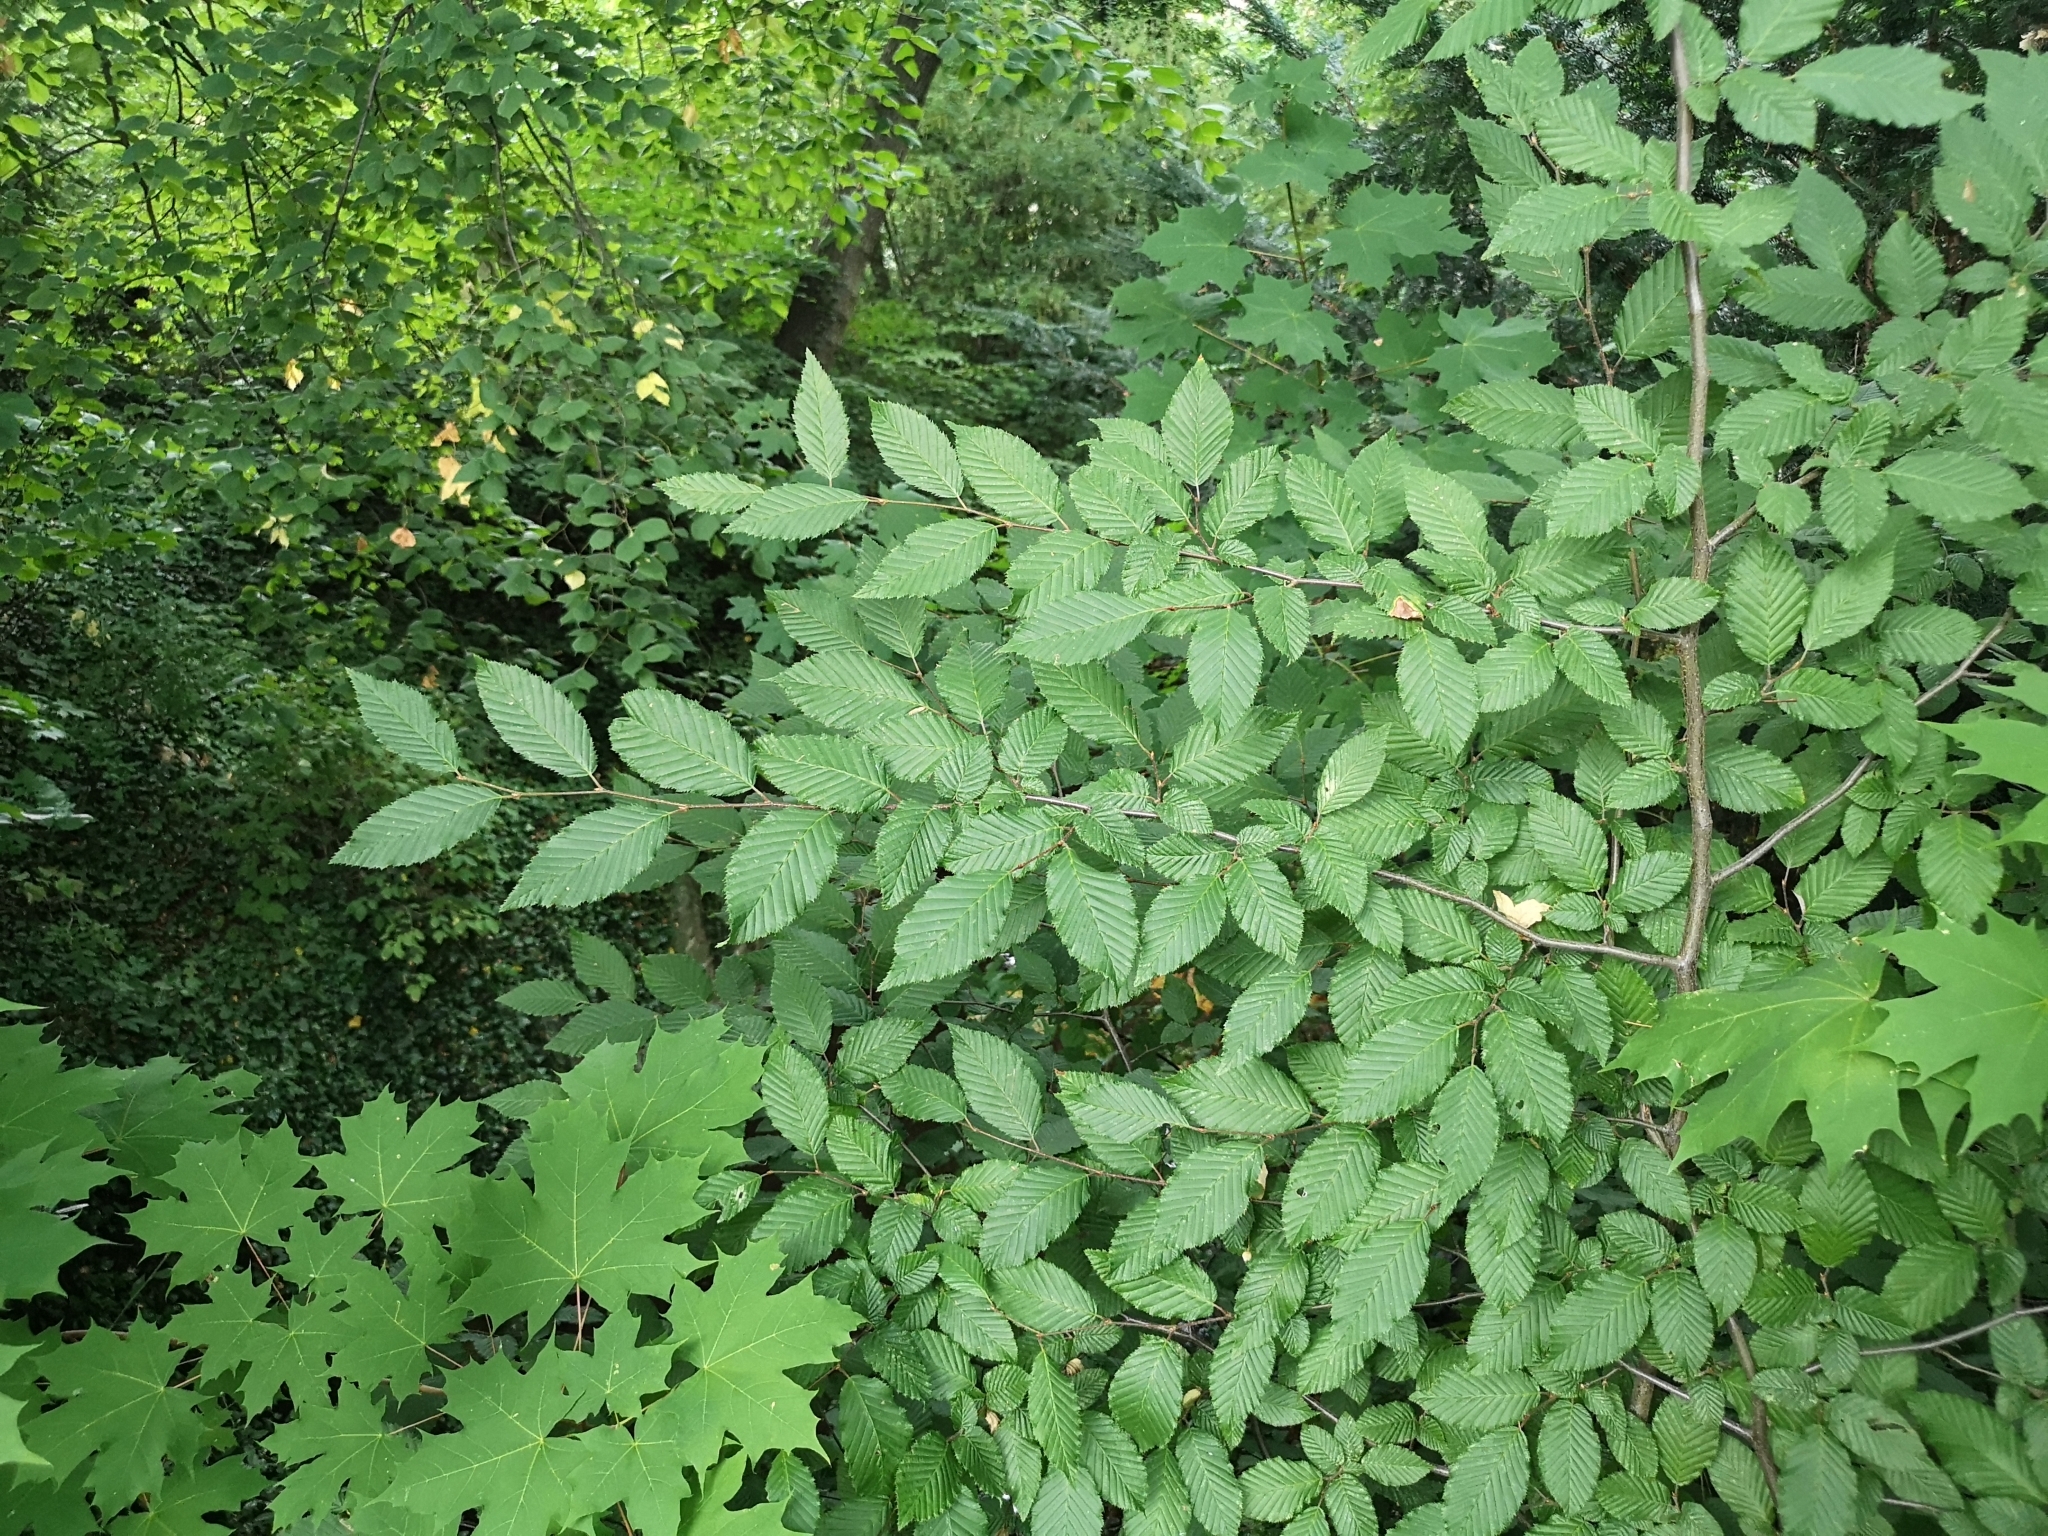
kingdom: Plantae
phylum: Tracheophyta
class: Magnoliopsida
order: Fagales
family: Betulaceae
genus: Carpinus
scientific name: Carpinus betulus
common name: Hornbeam
